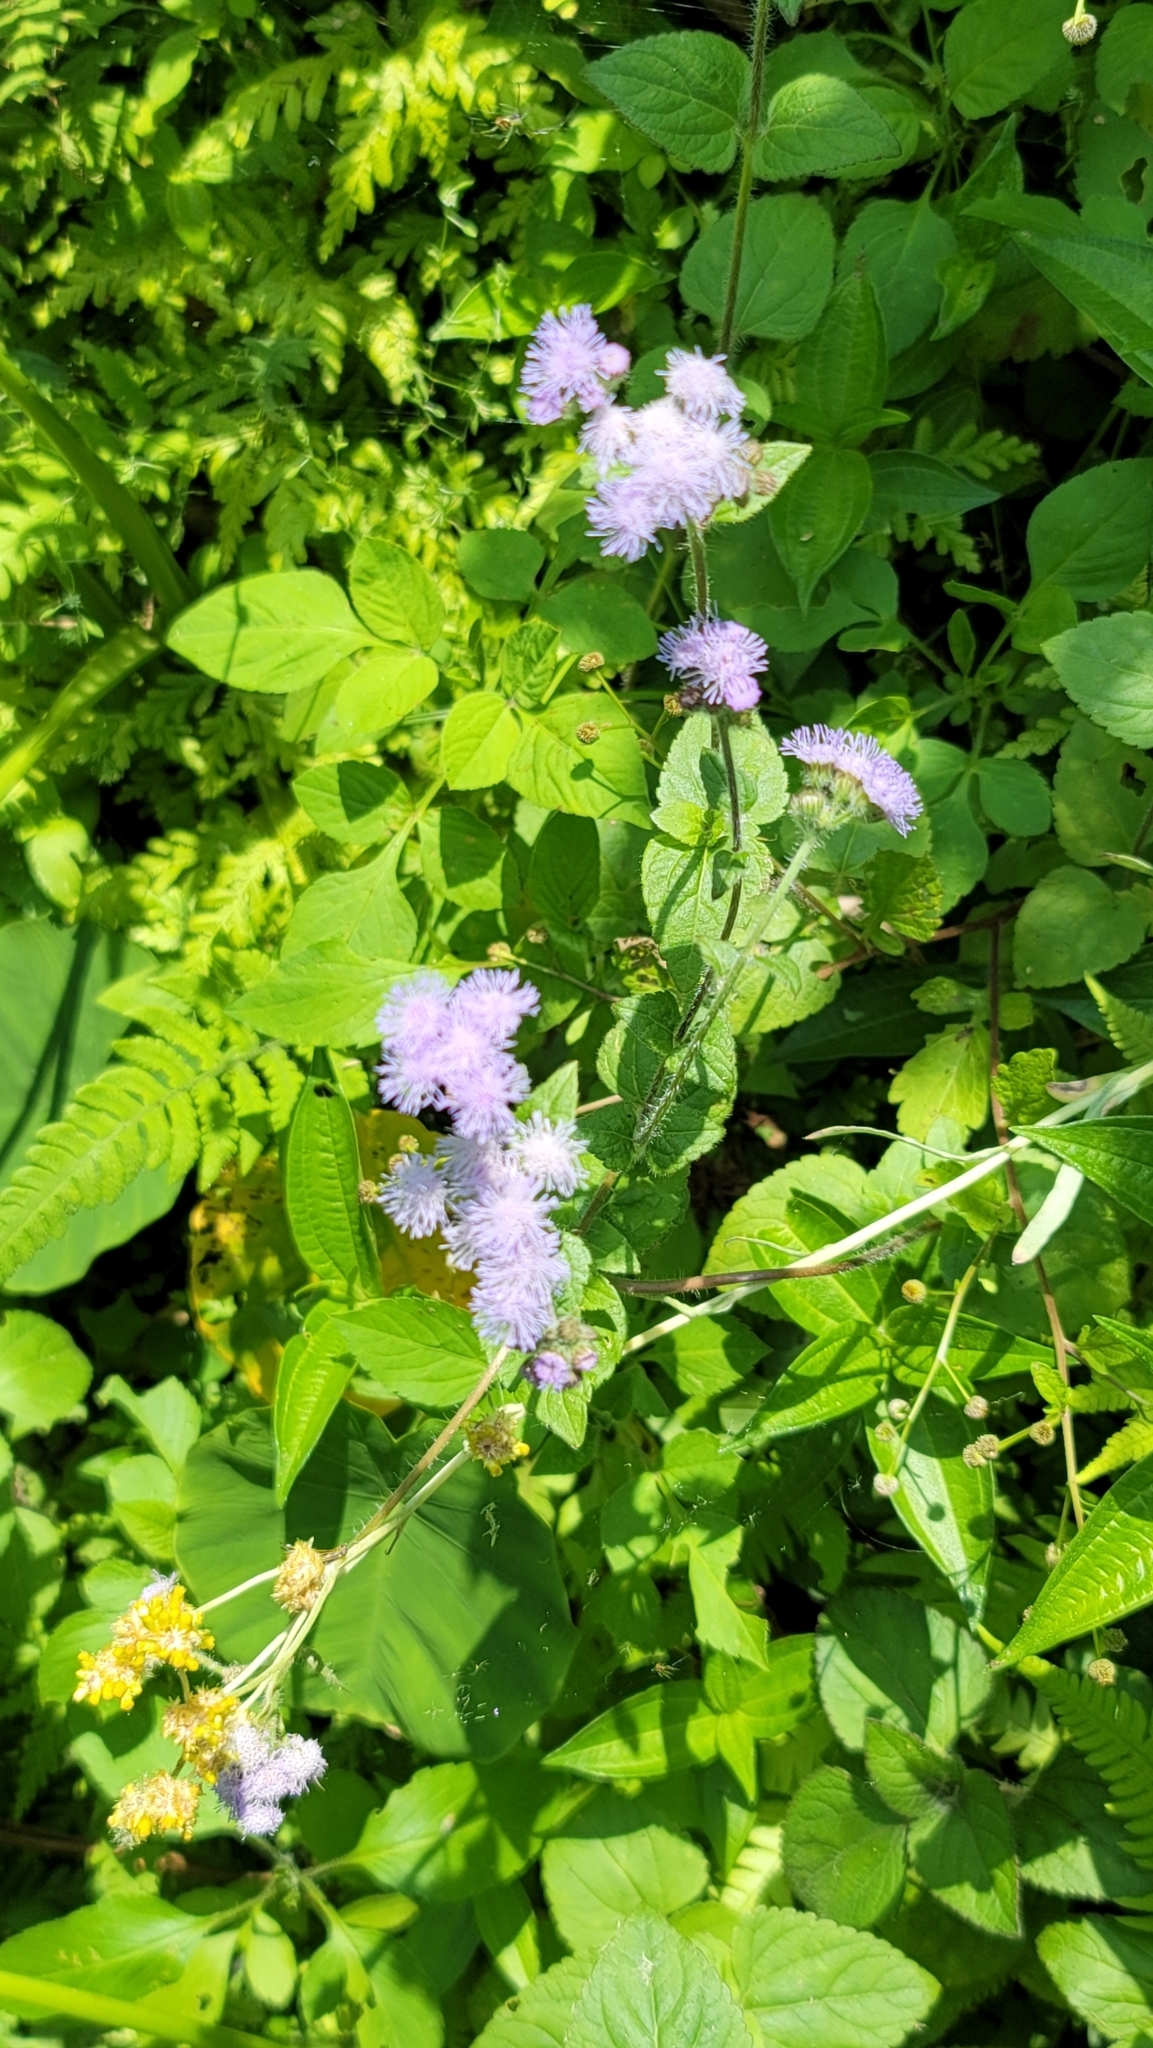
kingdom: Plantae
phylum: Tracheophyta
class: Magnoliopsida
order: Asterales
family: Asteraceae
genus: Ageratum
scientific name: Ageratum houstonianum
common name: Bluemink
